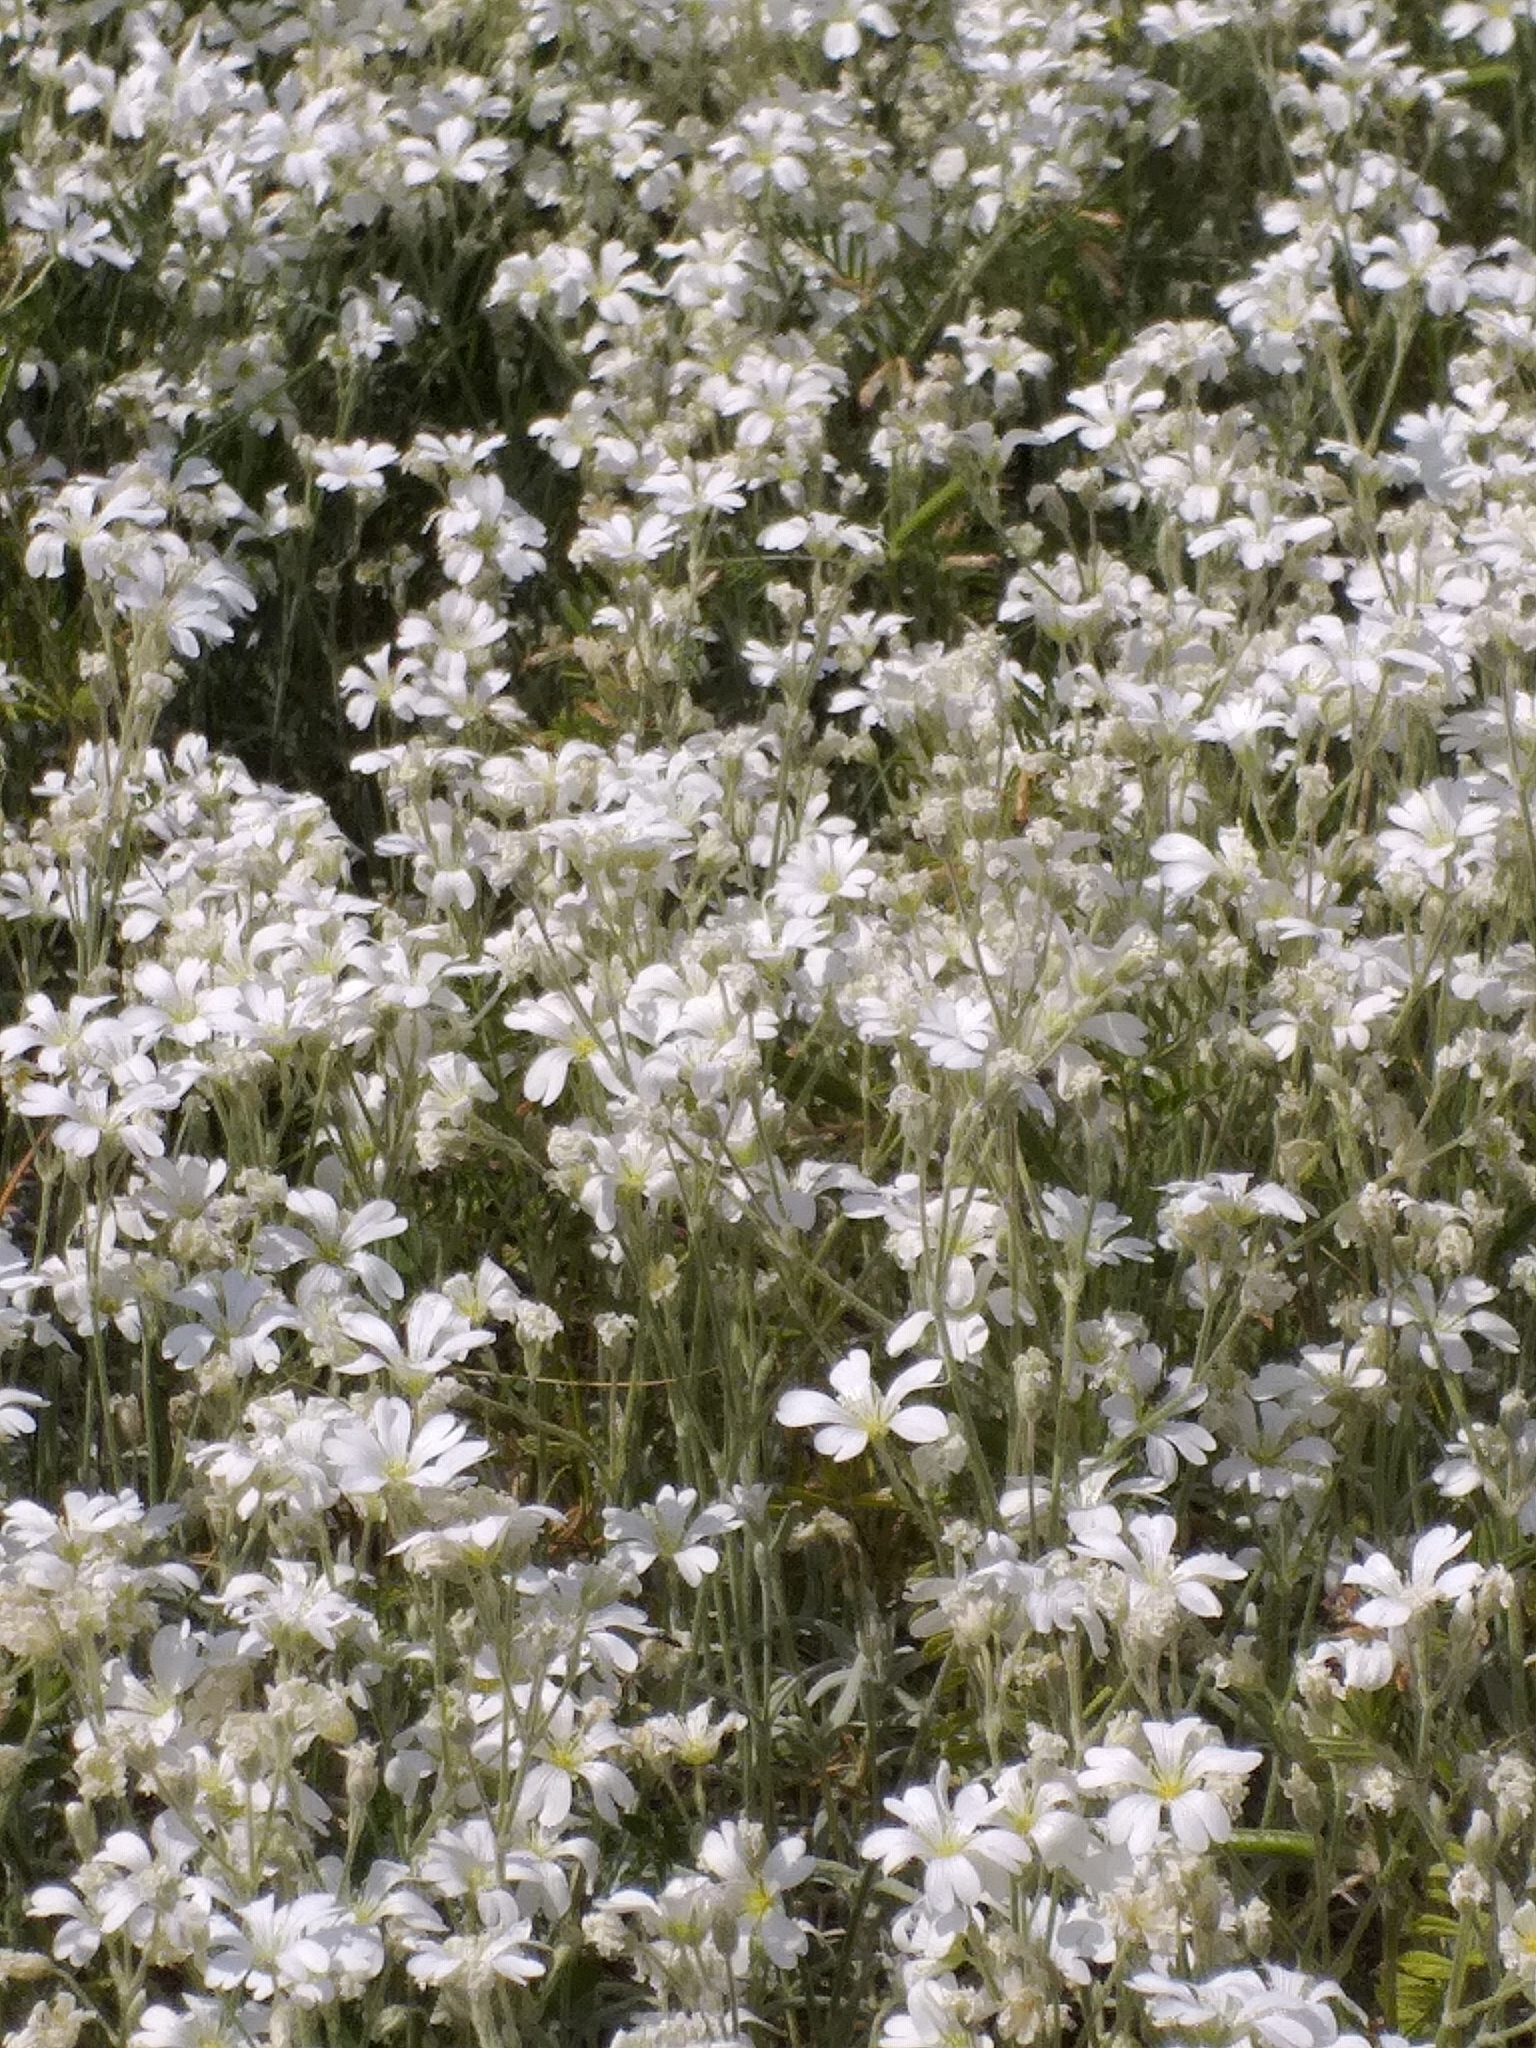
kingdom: Plantae
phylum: Tracheophyta
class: Magnoliopsida
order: Caryophyllales
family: Caryophyllaceae
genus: Cerastium
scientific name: Cerastium tomentosum
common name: Snow-in-summer
